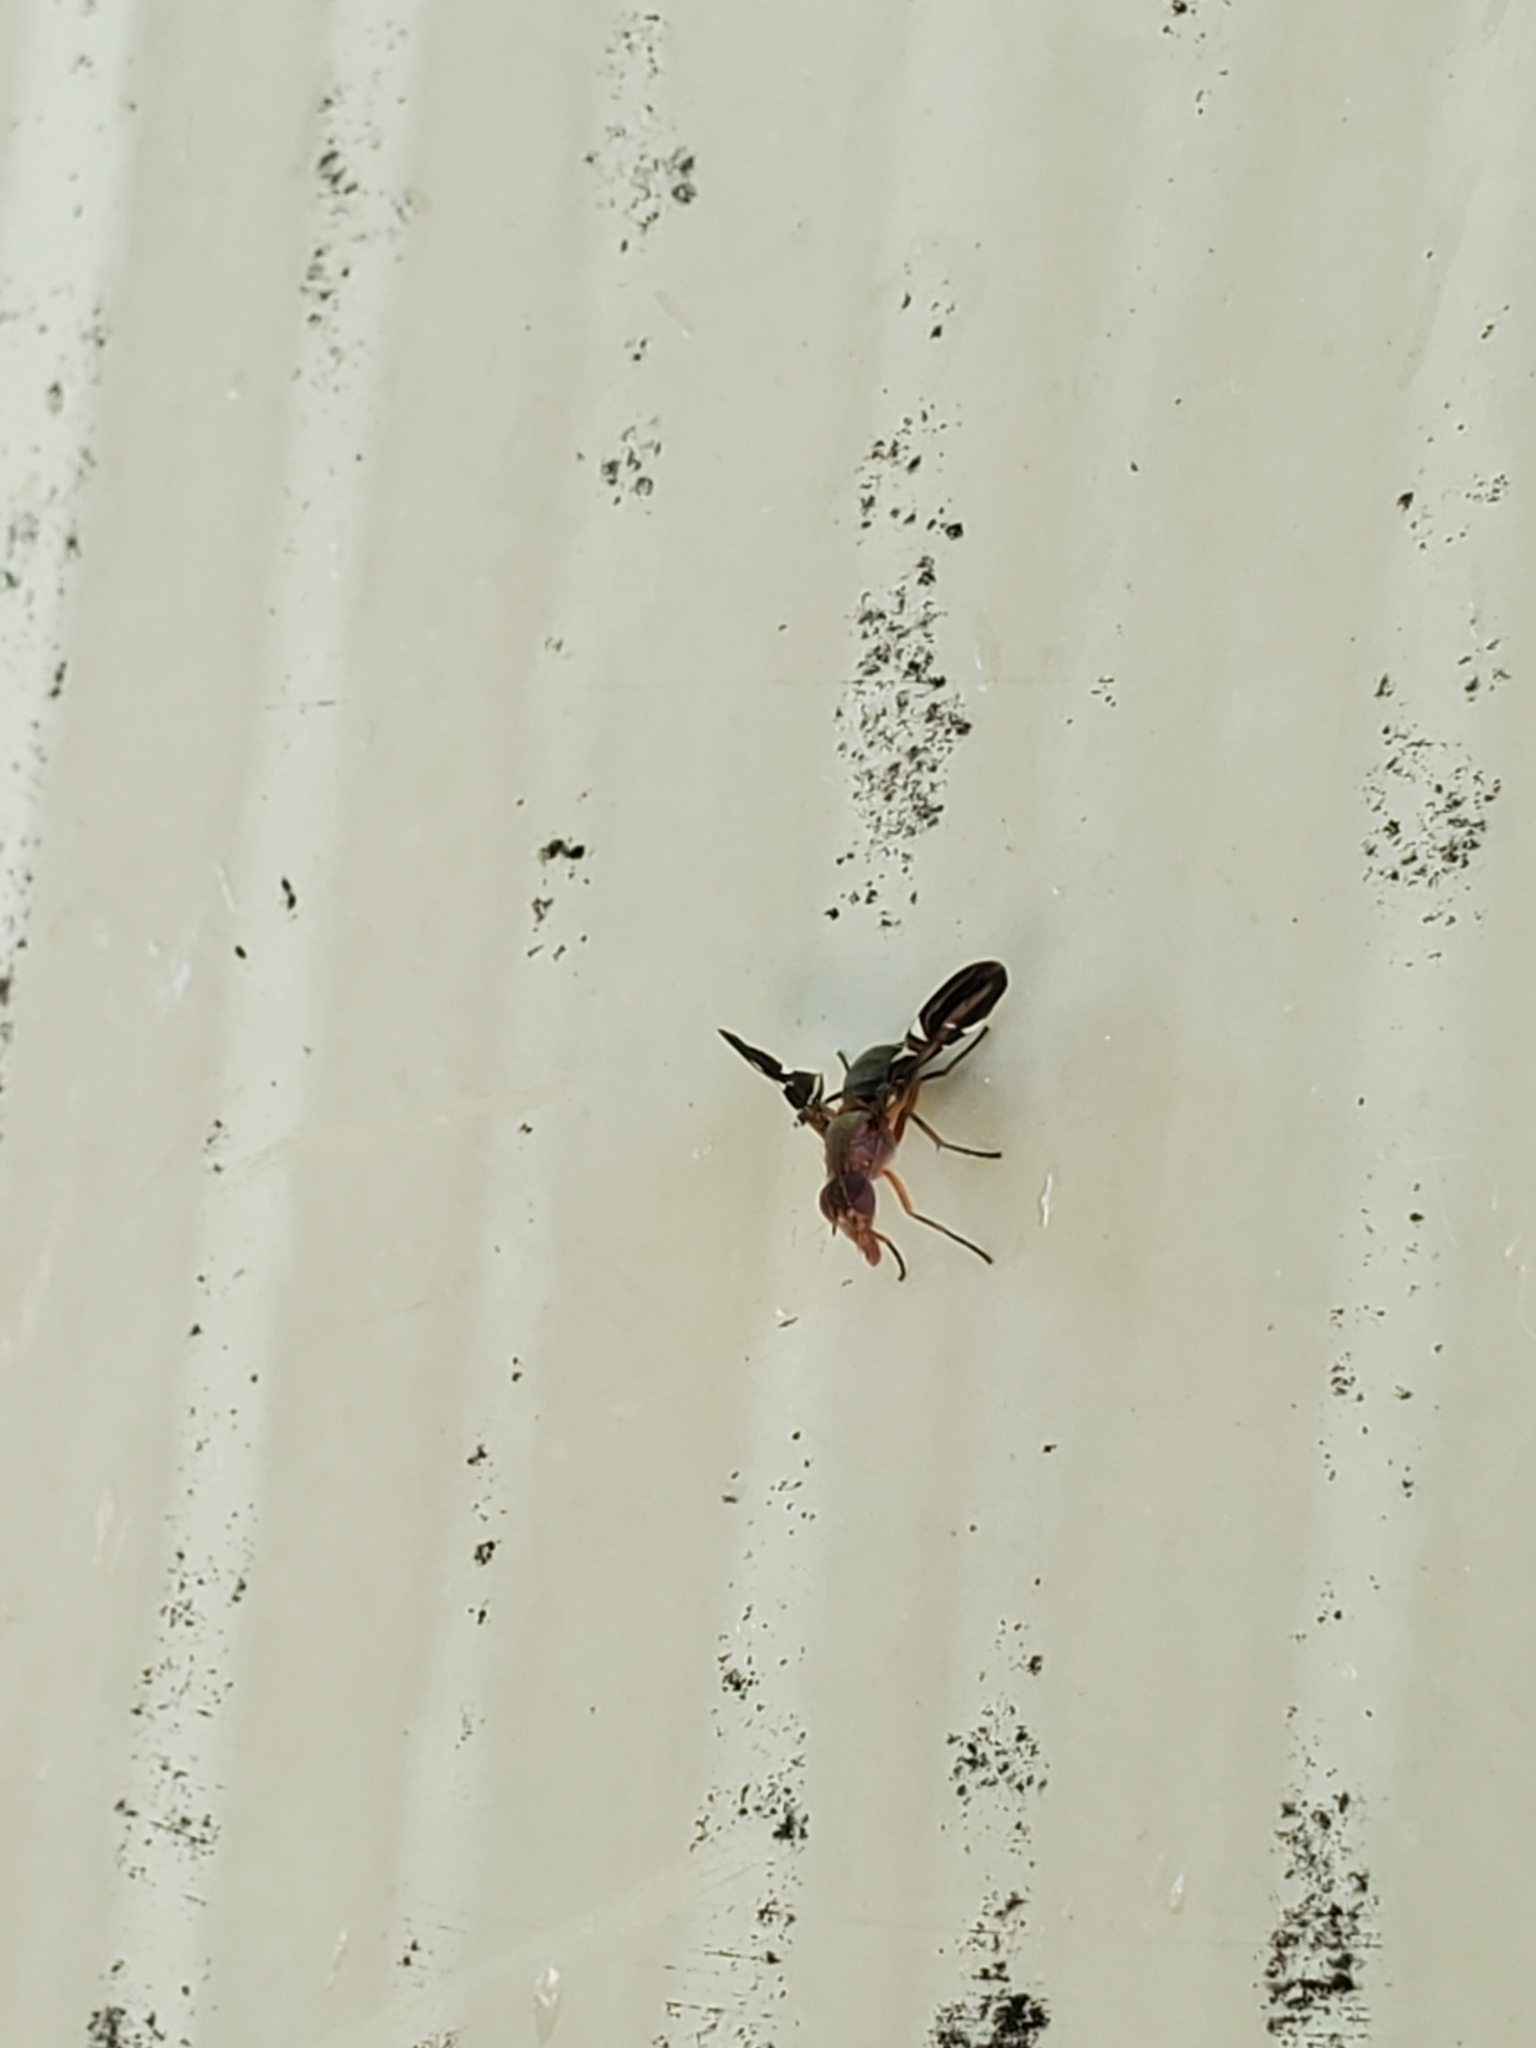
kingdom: Animalia
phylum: Arthropoda
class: Insecta
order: Diptera
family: Ulidiidae
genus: Delphinia
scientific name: Delphinia picta
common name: Common picture-winged fly
